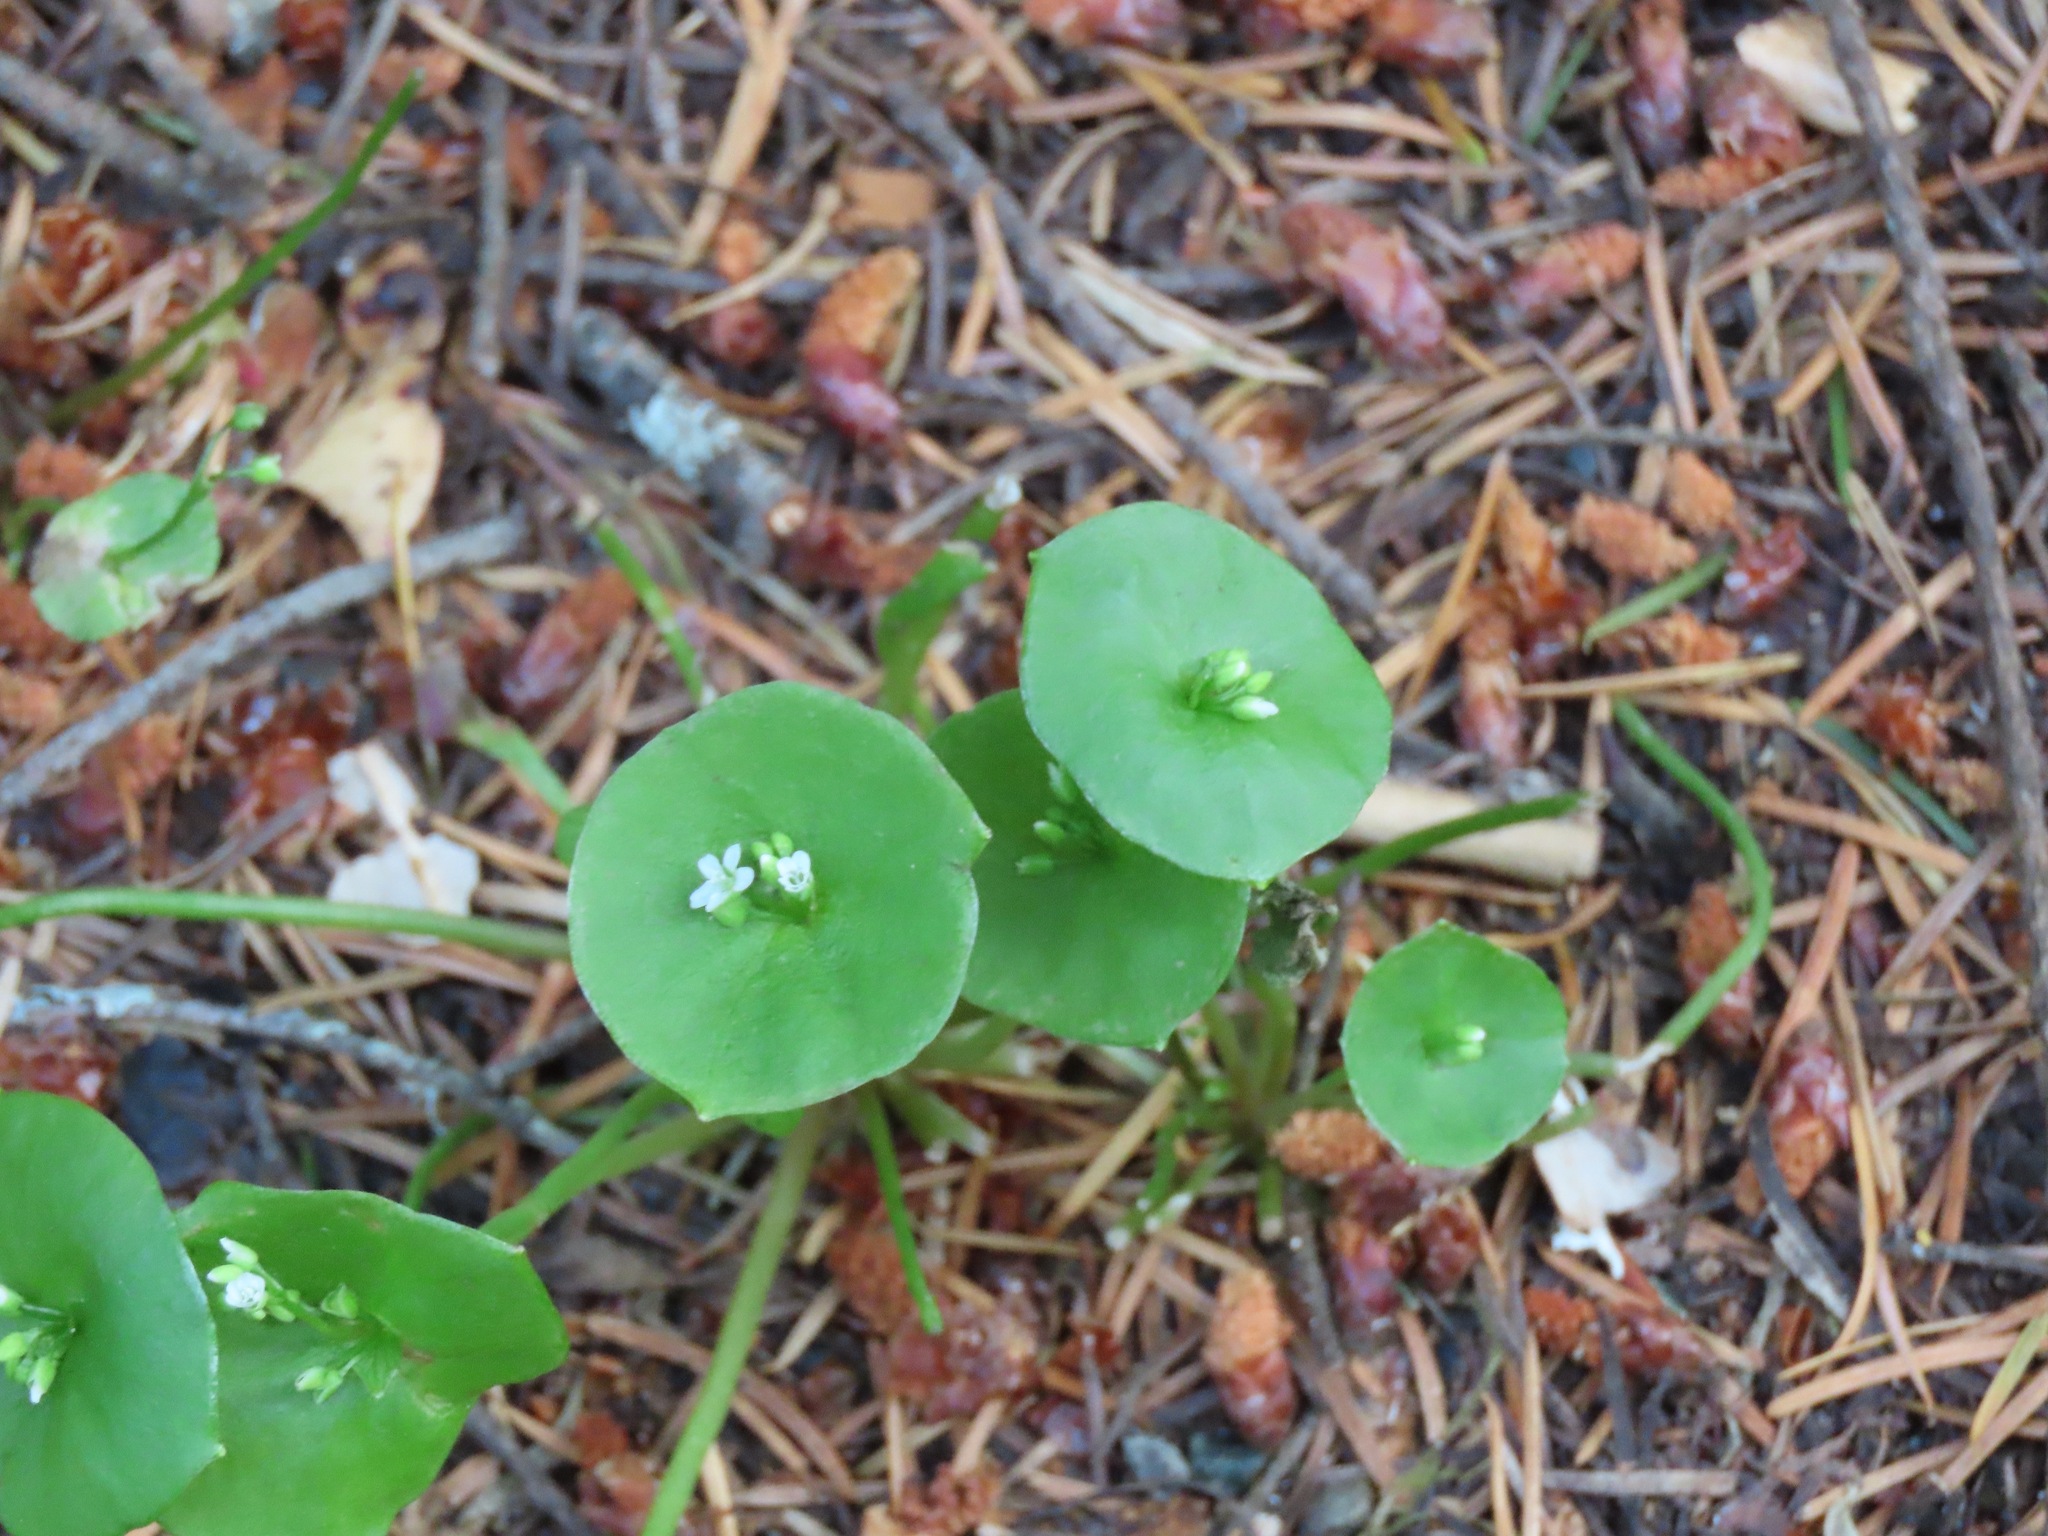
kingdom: Plantae
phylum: Tracheophyta
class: Magnoliopsida
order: Caryophyllales
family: Montiaceae
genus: Claytonia
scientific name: Claytonia perfoliata
